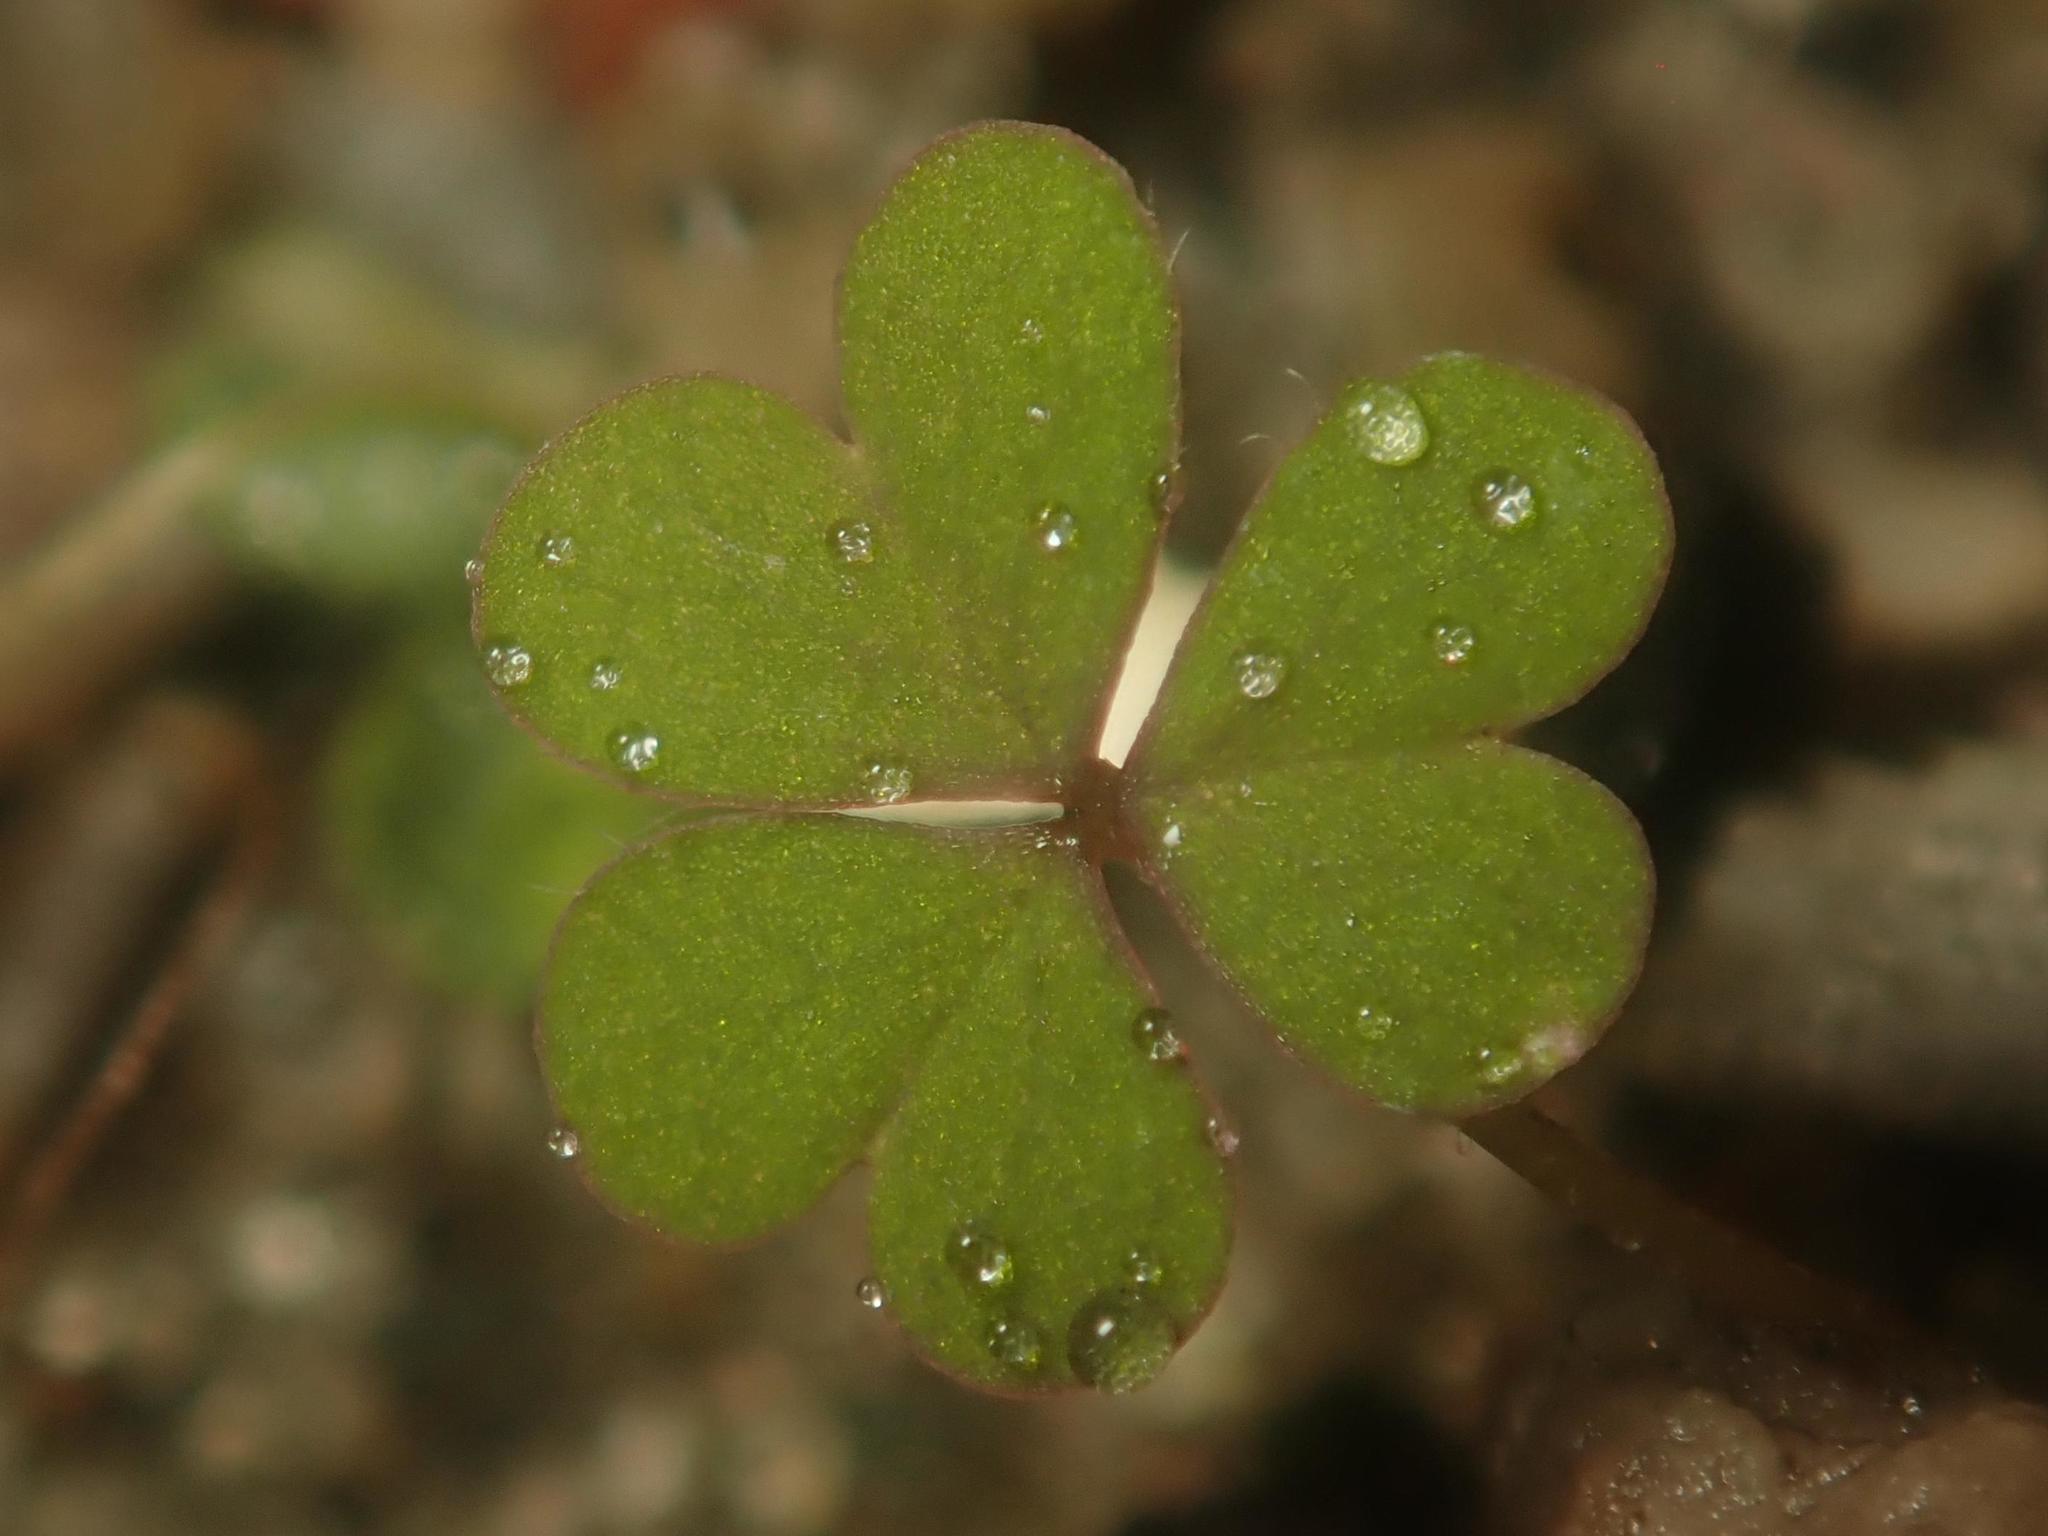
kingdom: Plantae
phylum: Tracheophyta
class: Magnoliopsida
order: Oxalidales
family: Oxalidaceae
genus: Oxalis
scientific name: Oxalis corniculata
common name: Procumbent yellow-sorrel
